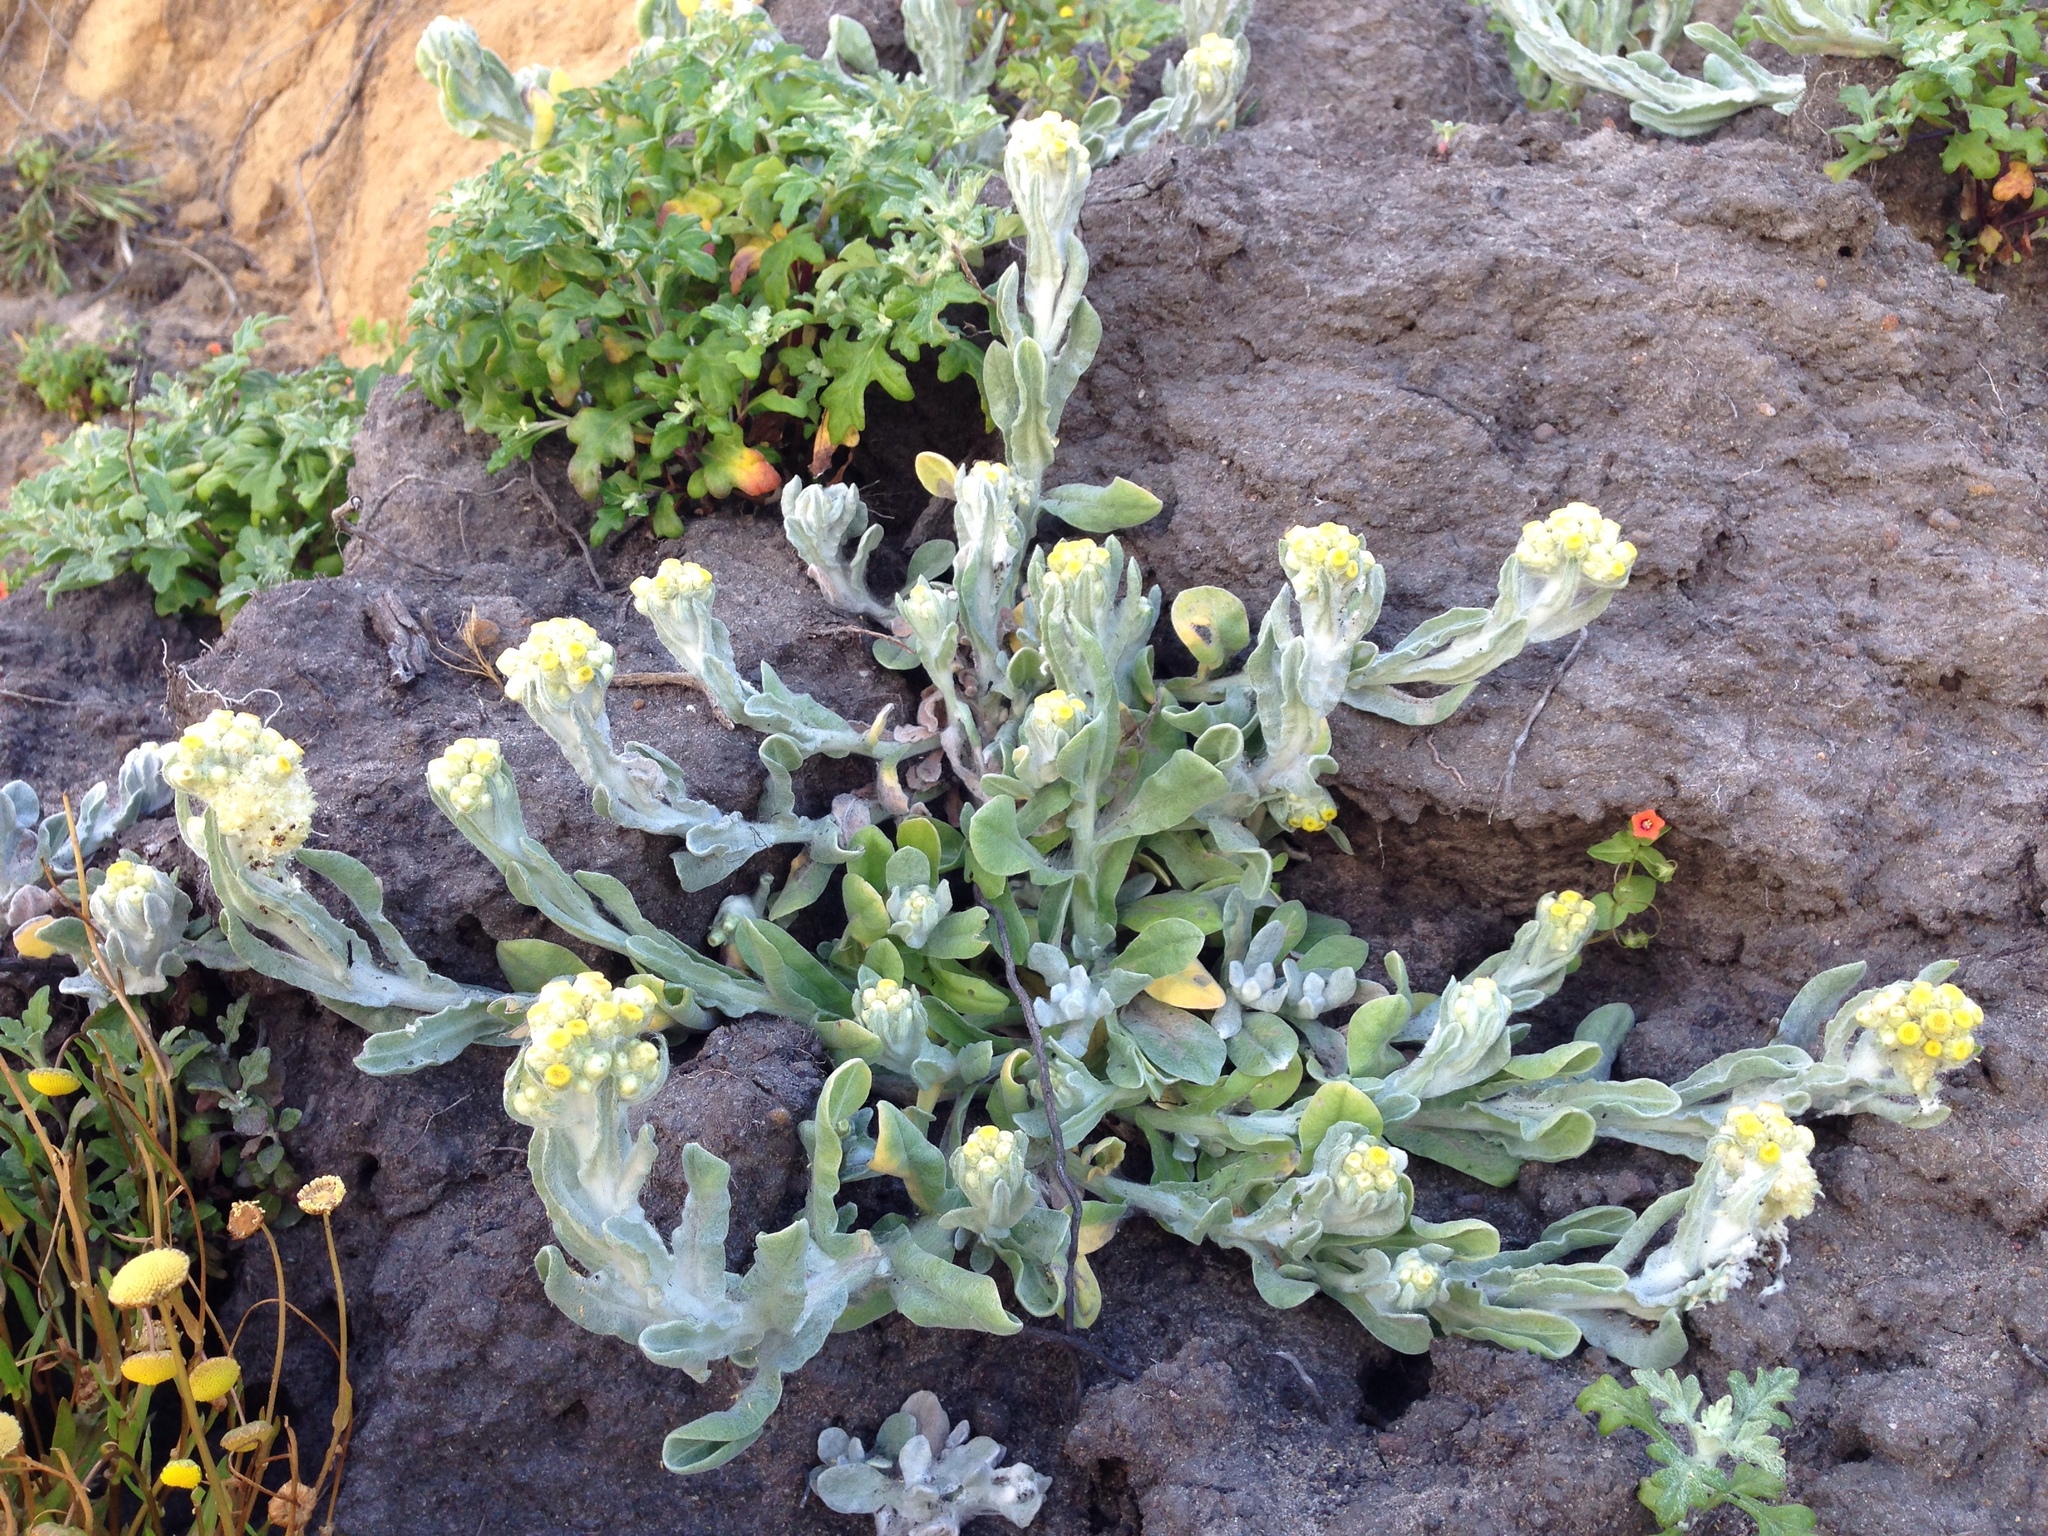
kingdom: Plantae
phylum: Tracheophyta
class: Magnoliopsida
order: Asterales
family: Asteraceae
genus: Pseudognaphalium
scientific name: Pseudognaphalium stramineum
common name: Cotton-batting-plant
